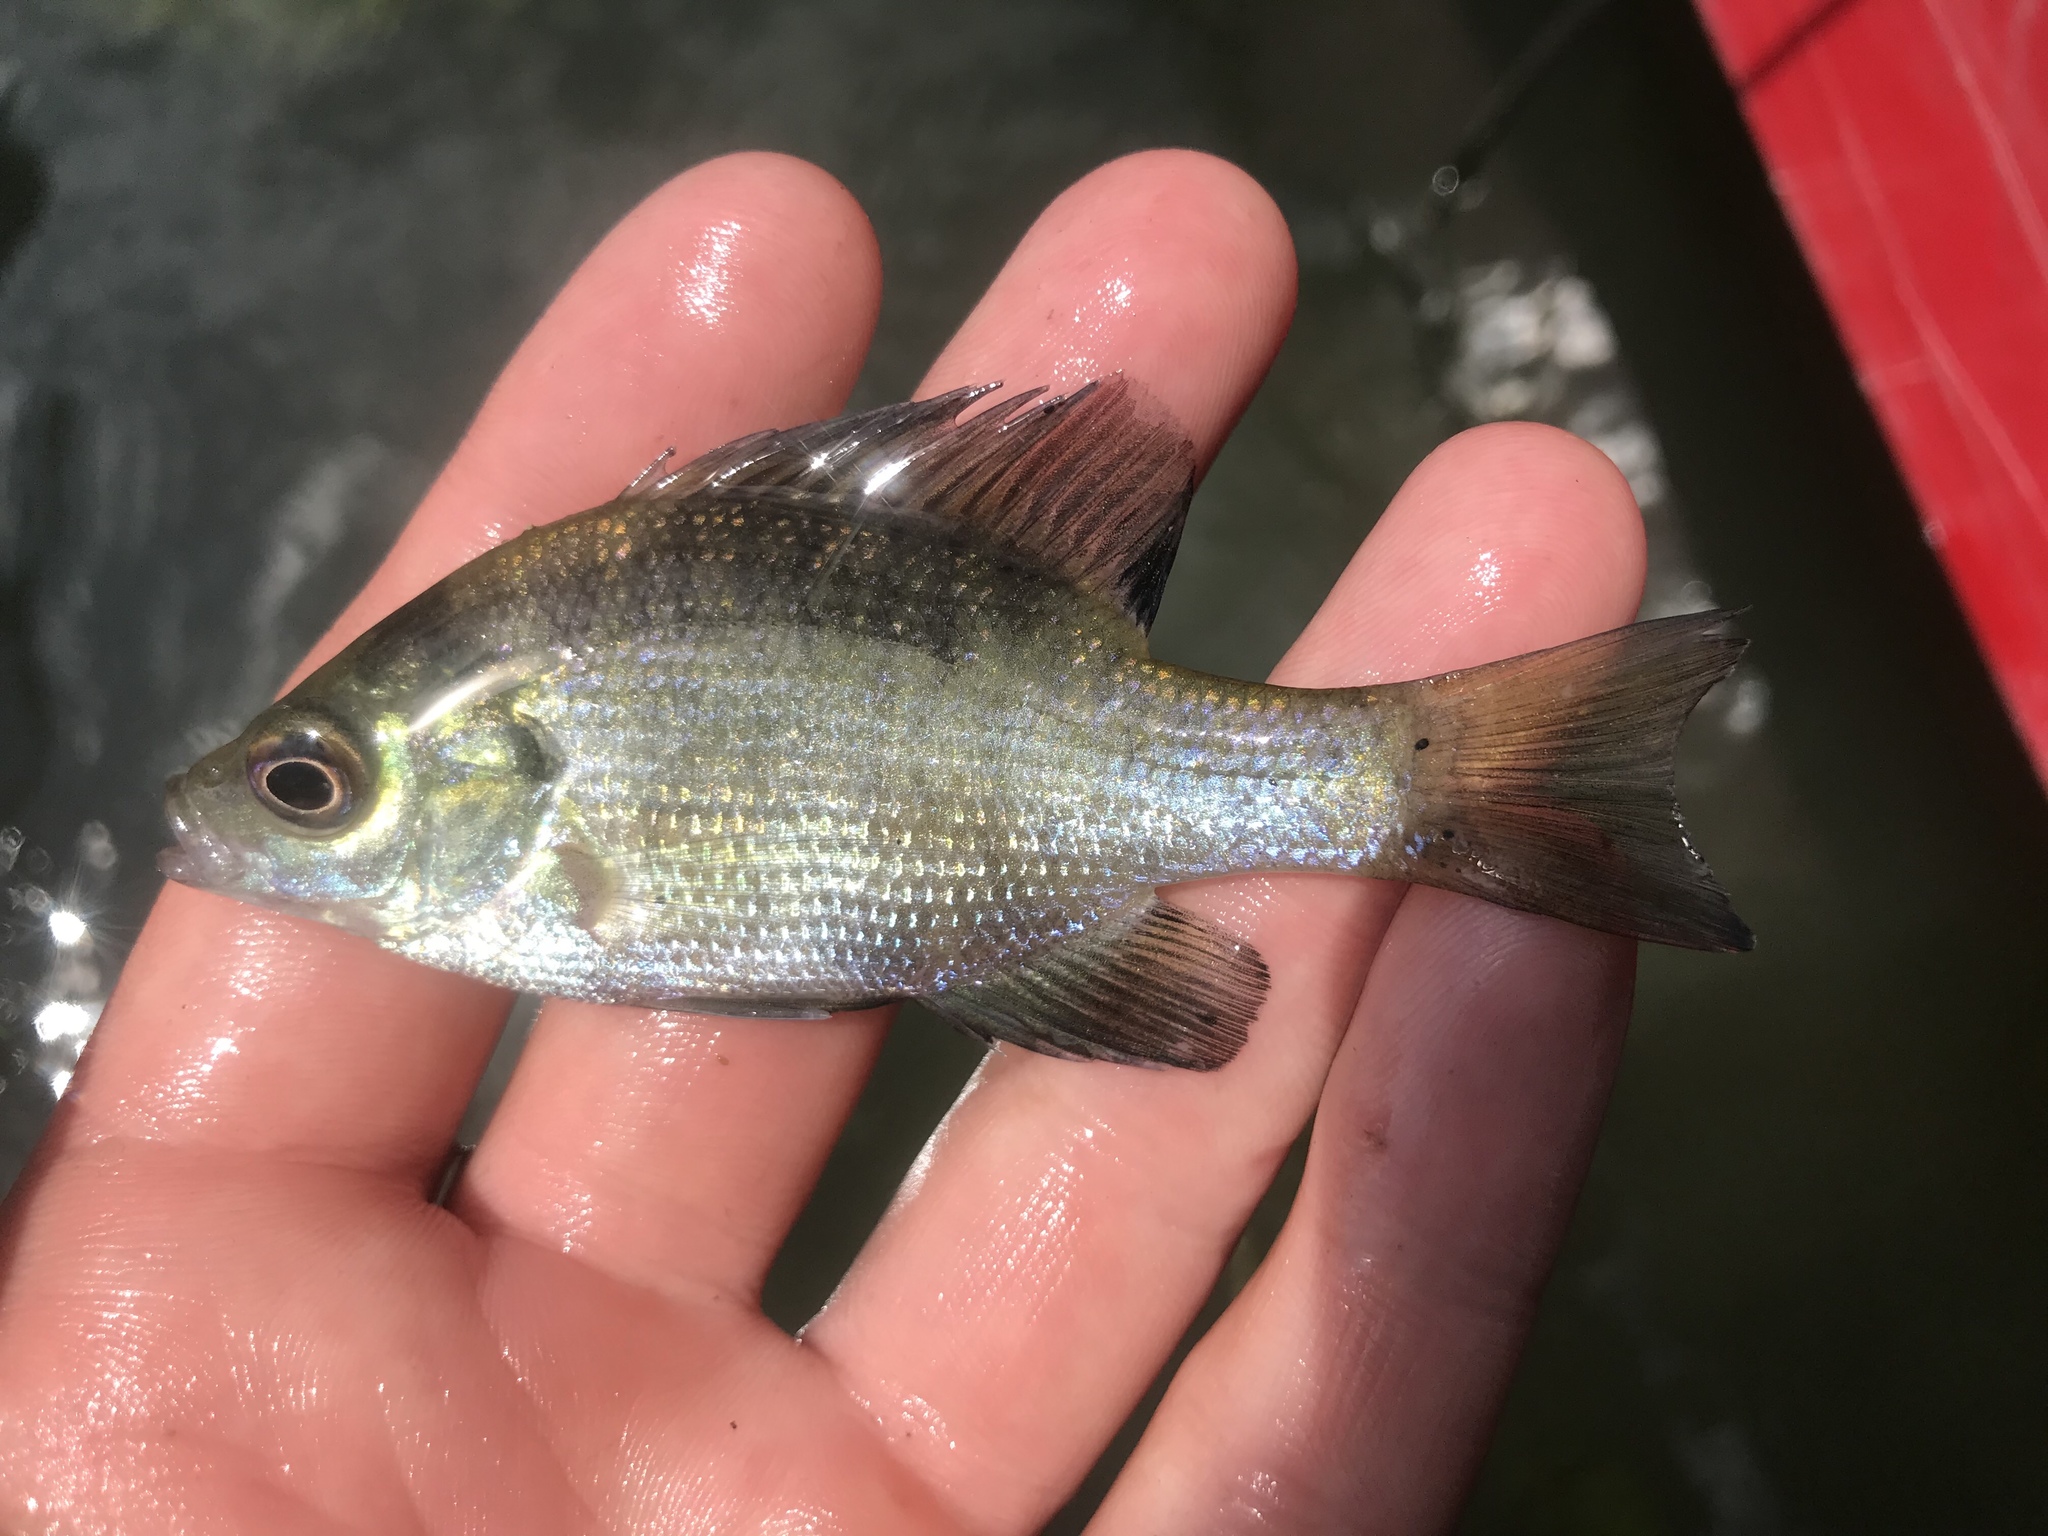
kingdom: Animalia
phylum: Chordata
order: Perciformes
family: Centrarchidae
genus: Lepomis
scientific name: Lepomis macrochirus
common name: Bluegill
